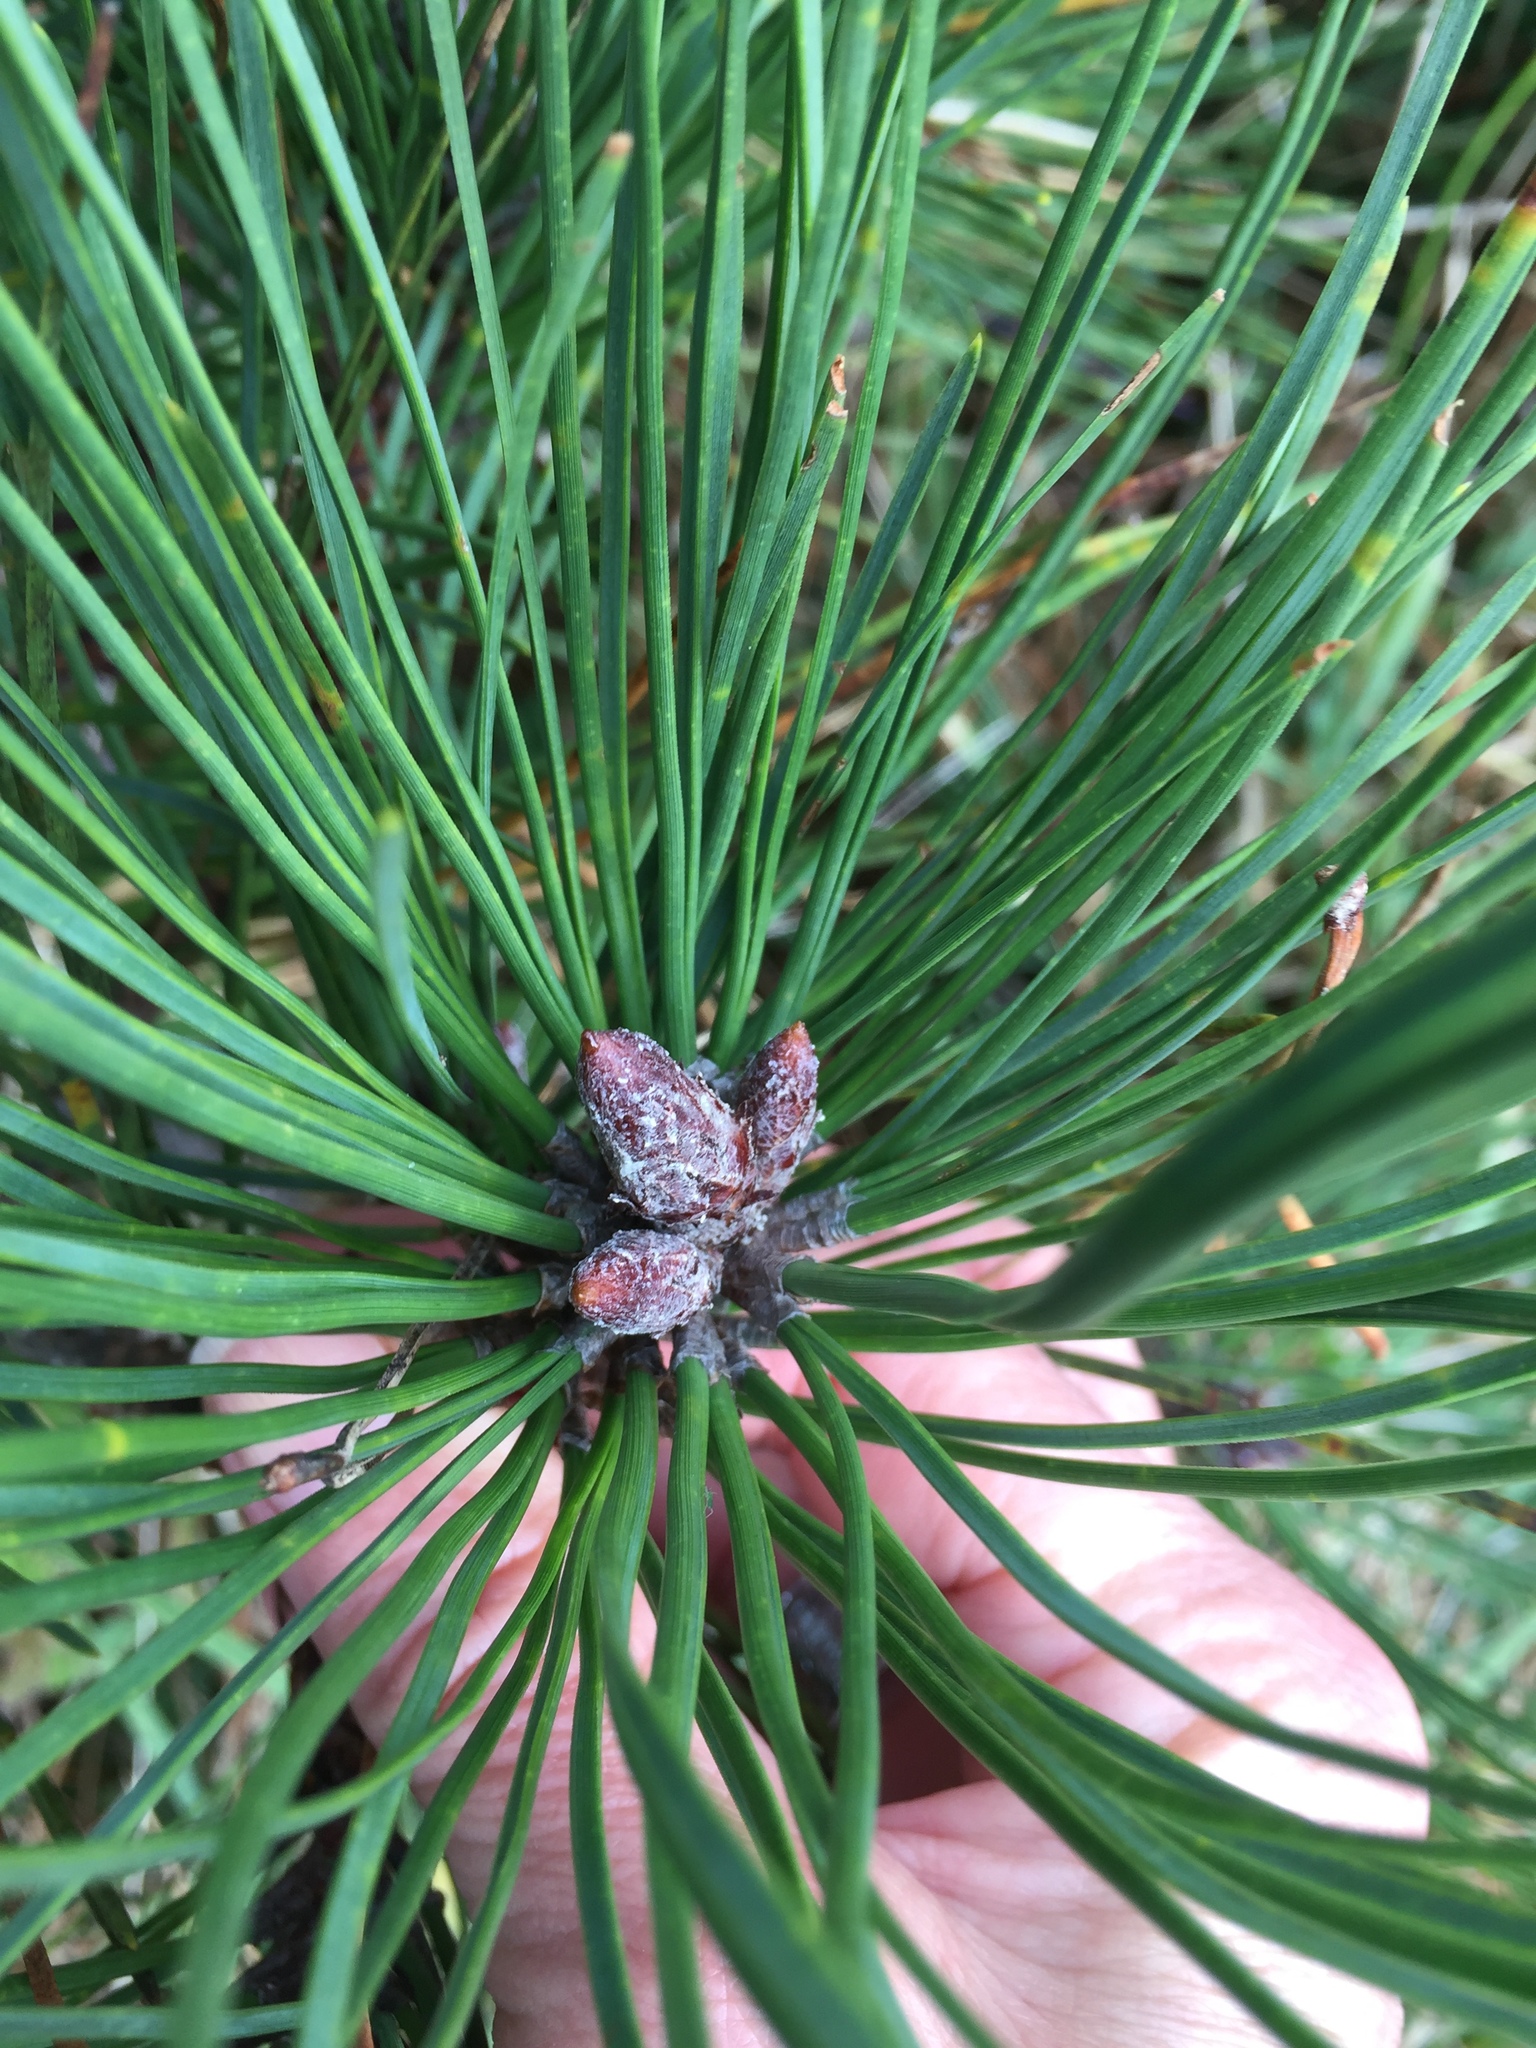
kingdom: Plantae
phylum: Tracheophyta
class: Pinopsida
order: Pinales
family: Pinaceae
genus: Pinus
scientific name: Pinus muricata
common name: Bishop pine
